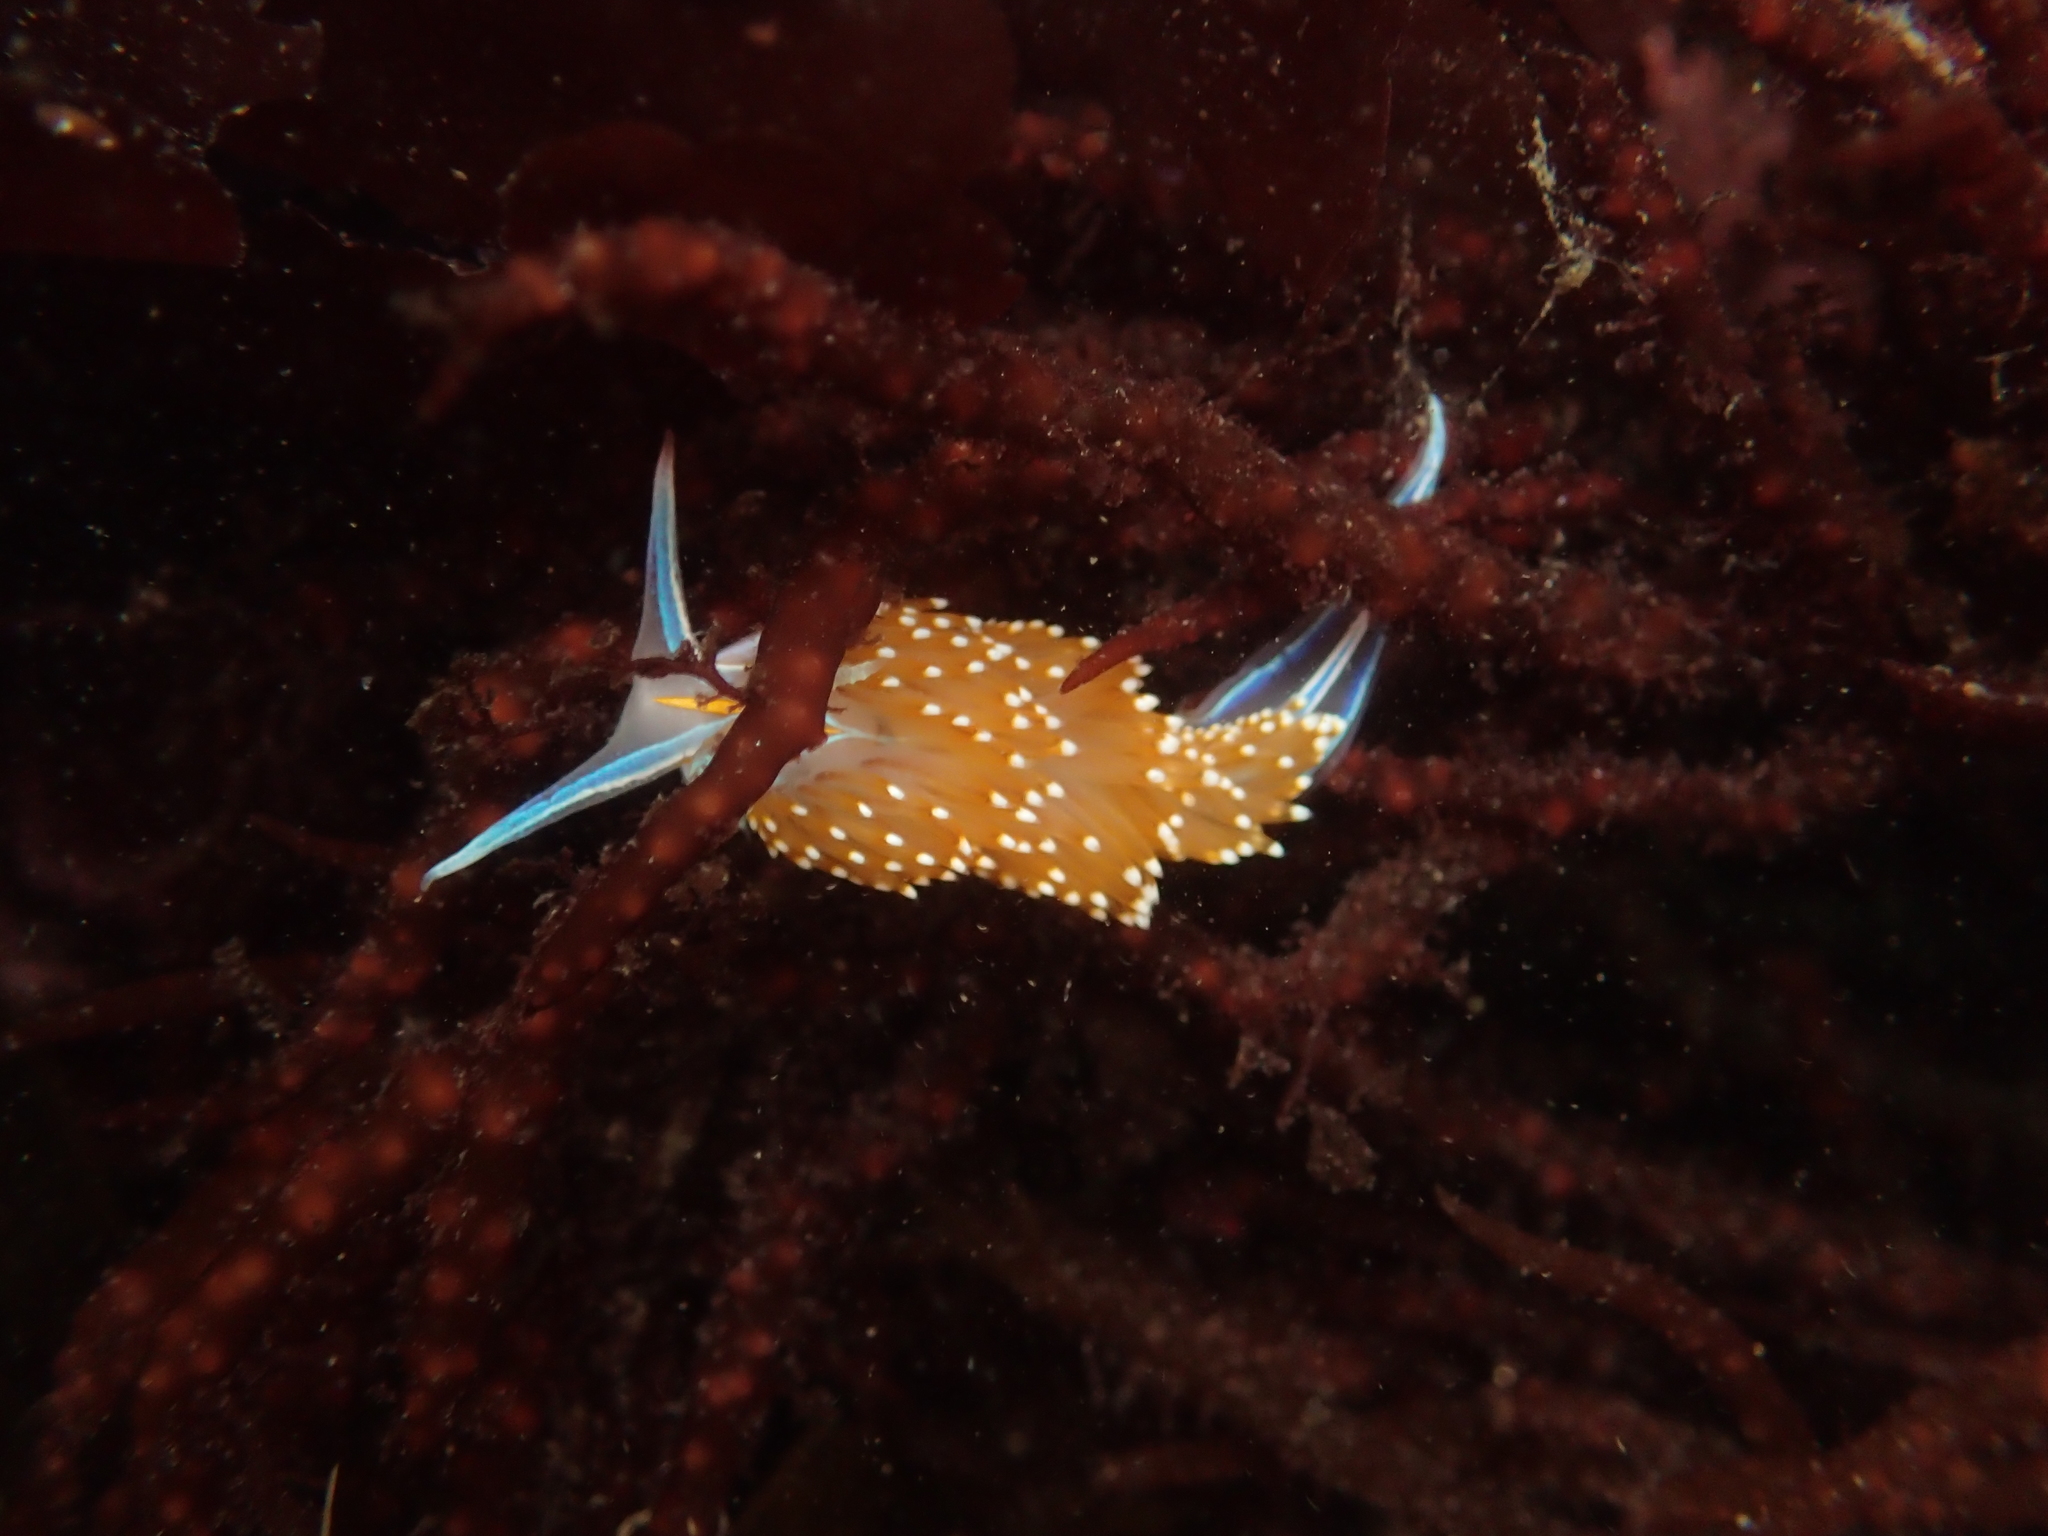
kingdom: Animalia
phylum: Mollusca
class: Gastropoda
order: Nudibranchia
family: Myrrhinidae
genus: Hermissenda
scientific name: Hermissenda opalescens
